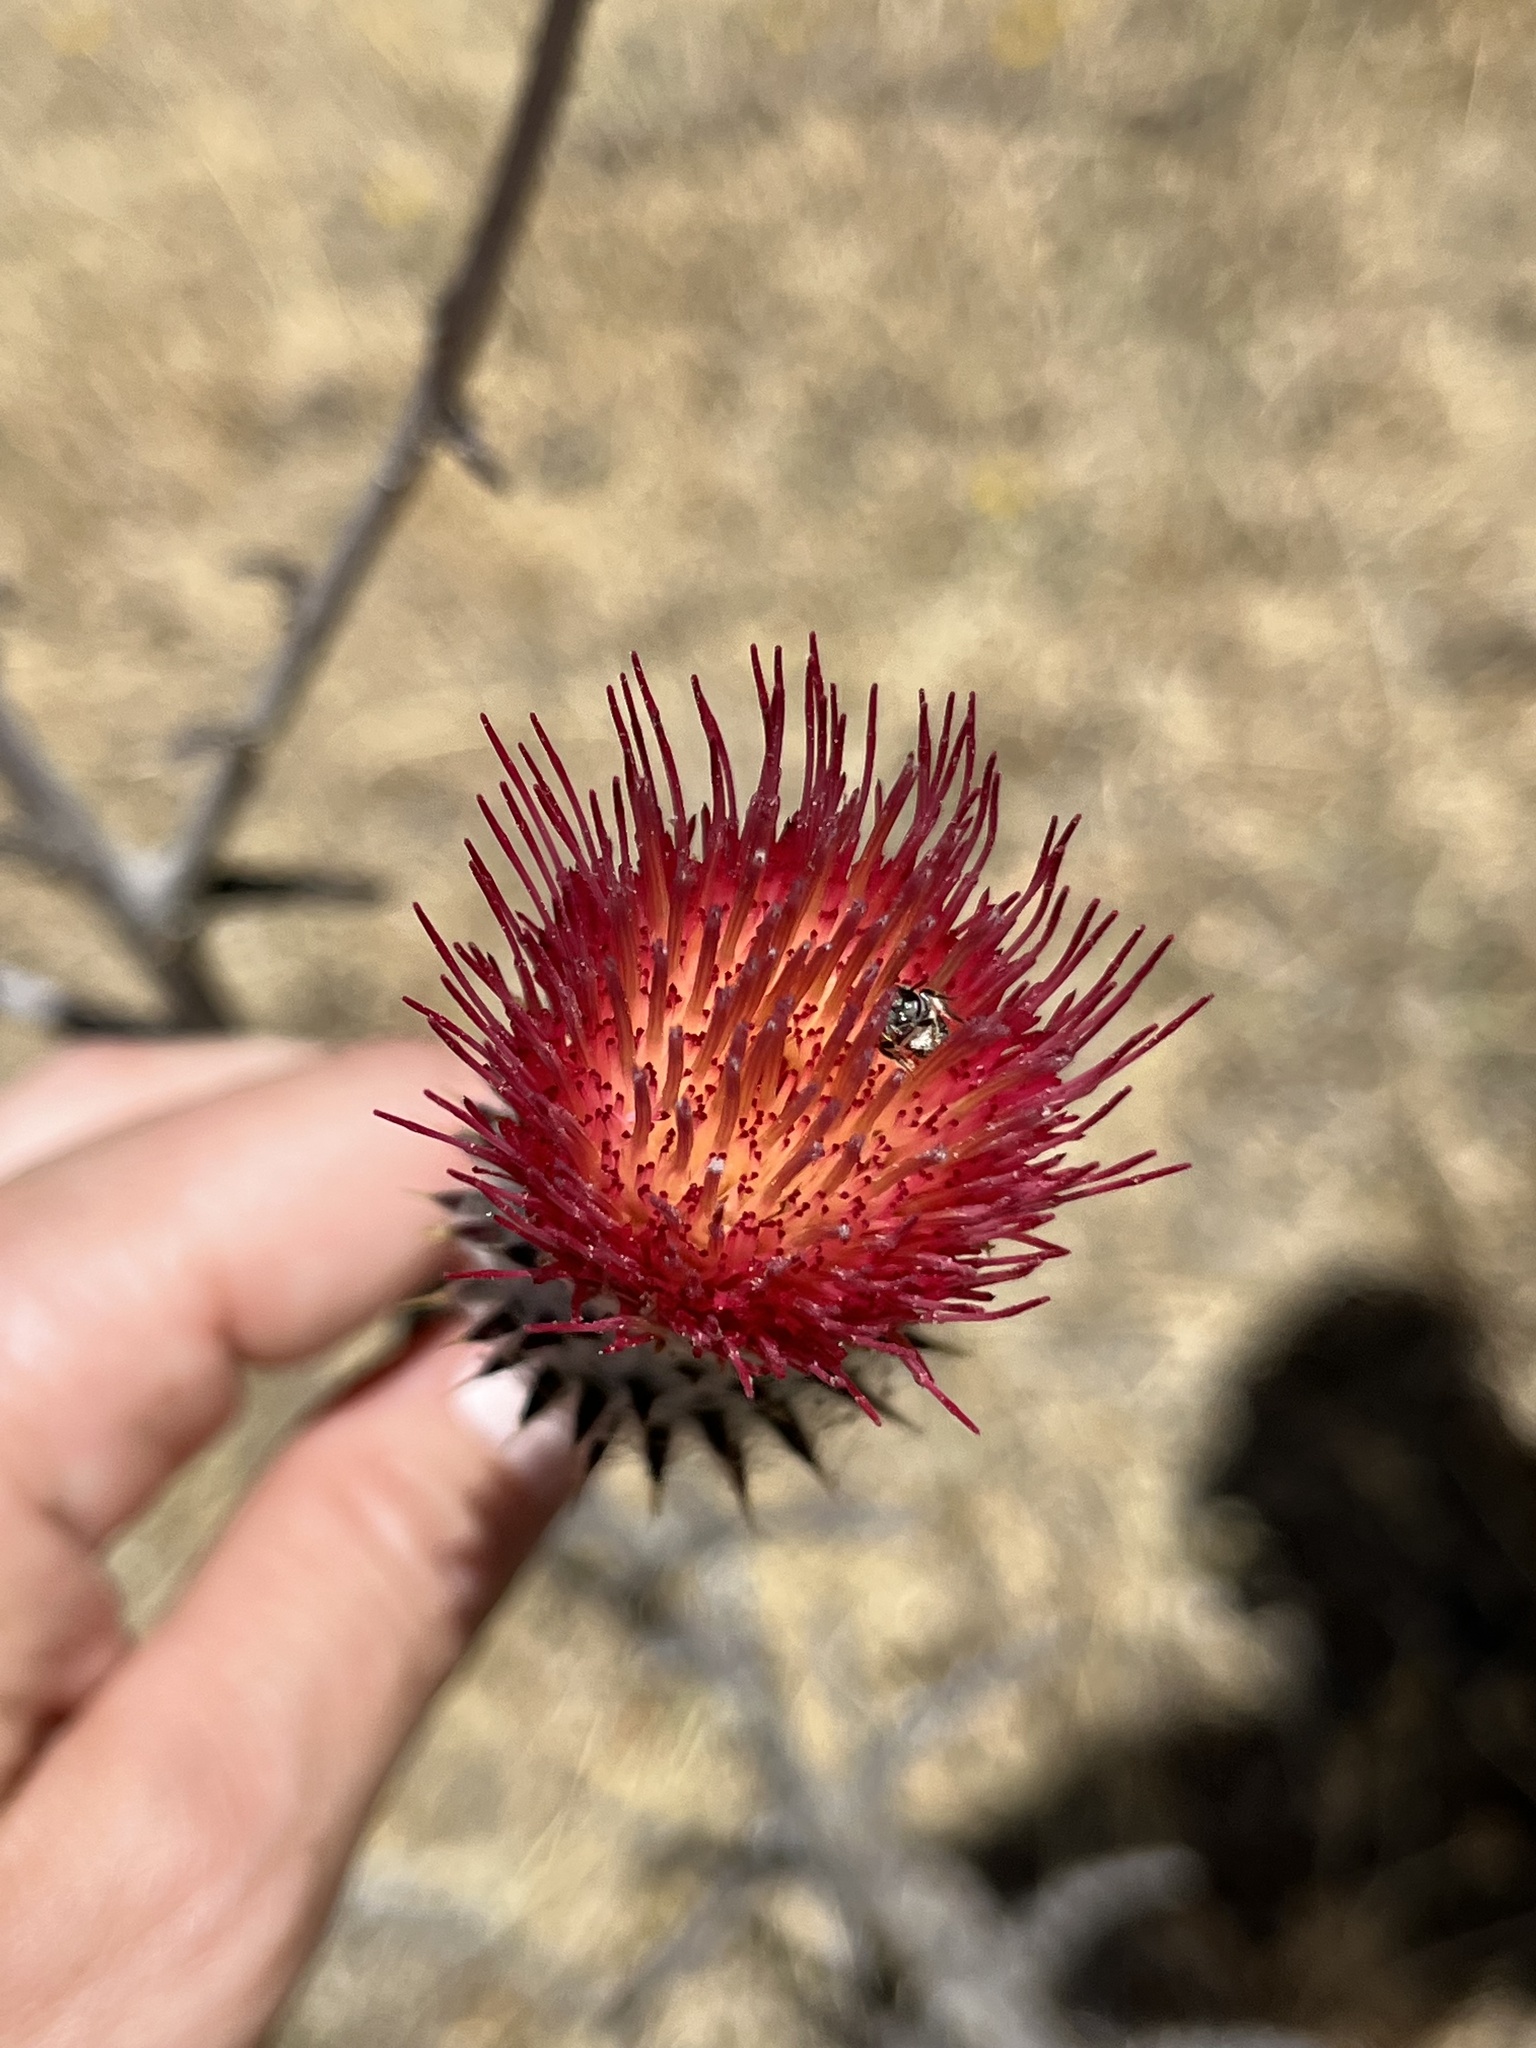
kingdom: Plantae
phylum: Tracheophyta
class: Magnoliopsida
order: Asterales
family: Asteraceae
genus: Cirsium
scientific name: Cirsium occidentale
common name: Western thistle
